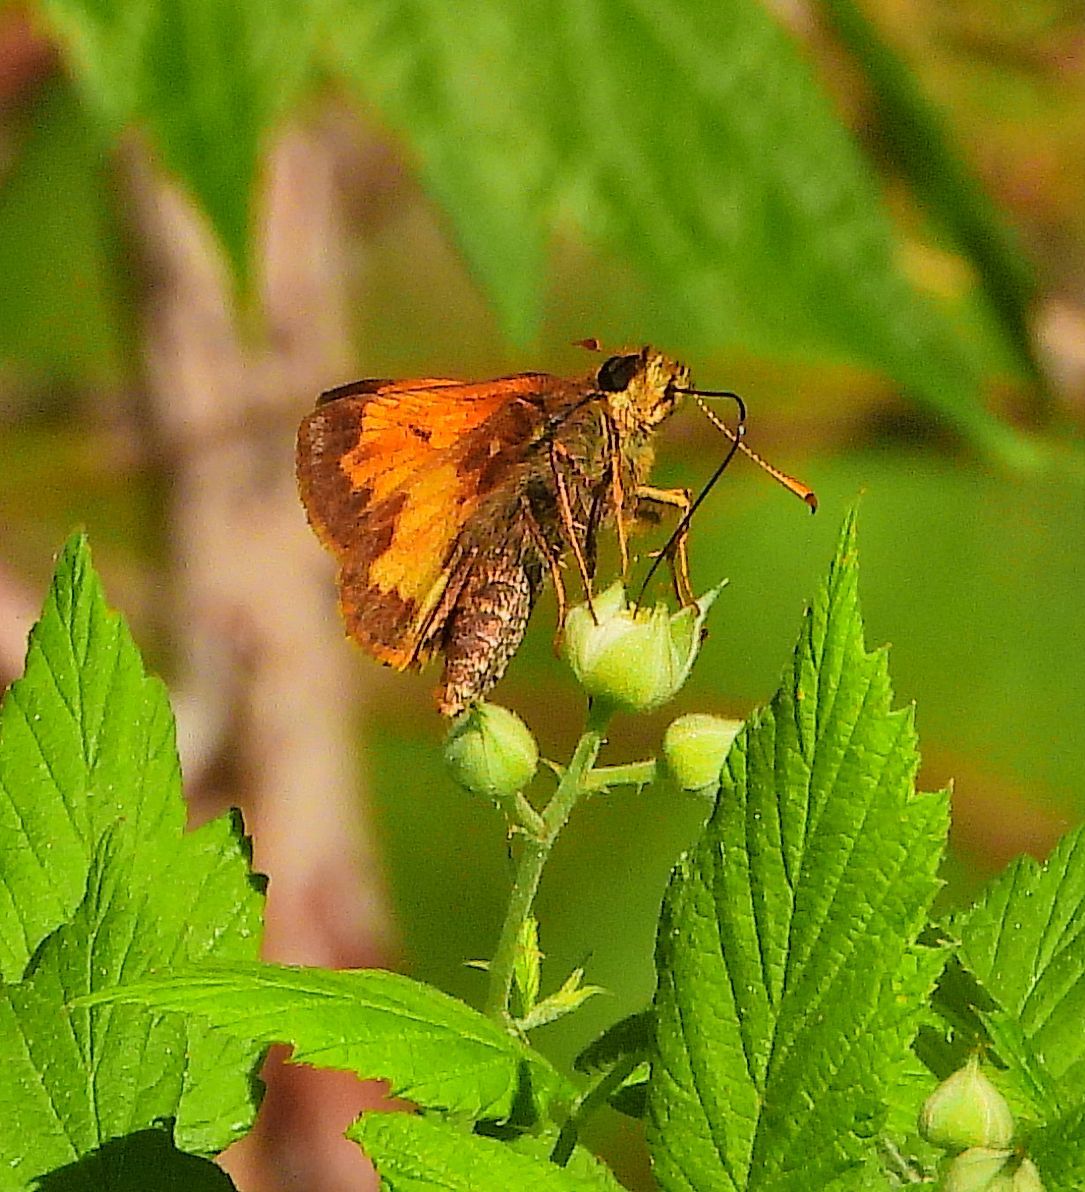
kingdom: Animalia
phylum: Arthropoda
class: Insecta
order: Lepidoptera
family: Hesperiidae
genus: Lon
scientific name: Lon hobomok
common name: Hobomok skipper
